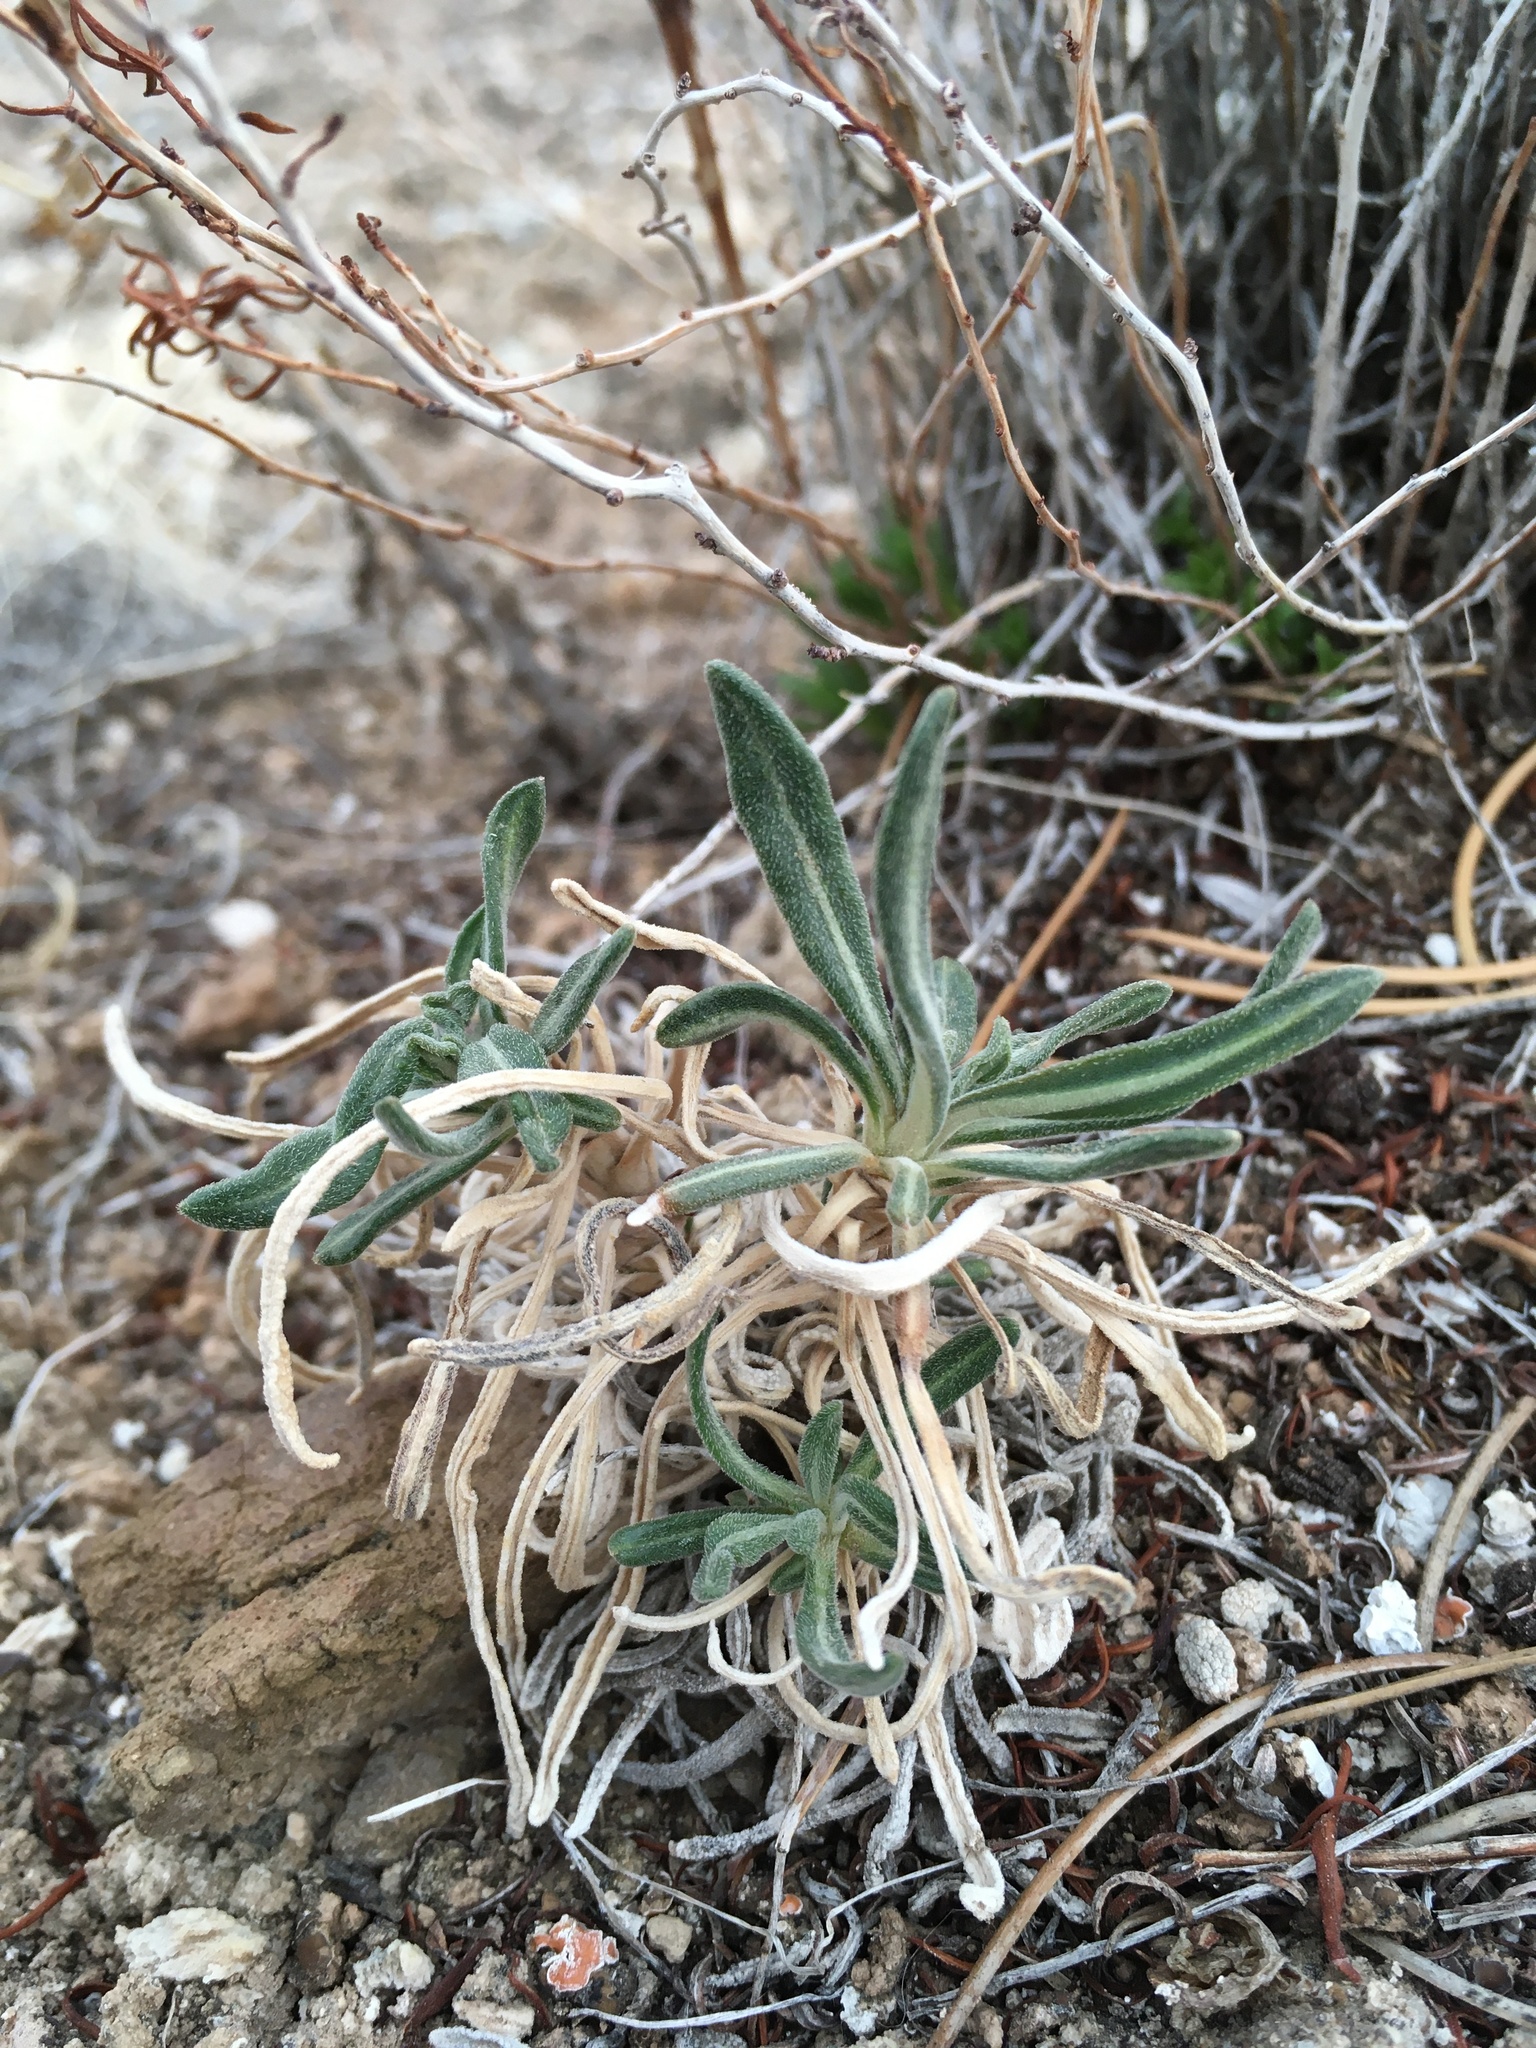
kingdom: Plantae
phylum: Tracheophyta
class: Magnoliopsida
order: Cornales
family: Loasaceae
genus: Mentzelia
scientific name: Mentzelia todiltoensis
